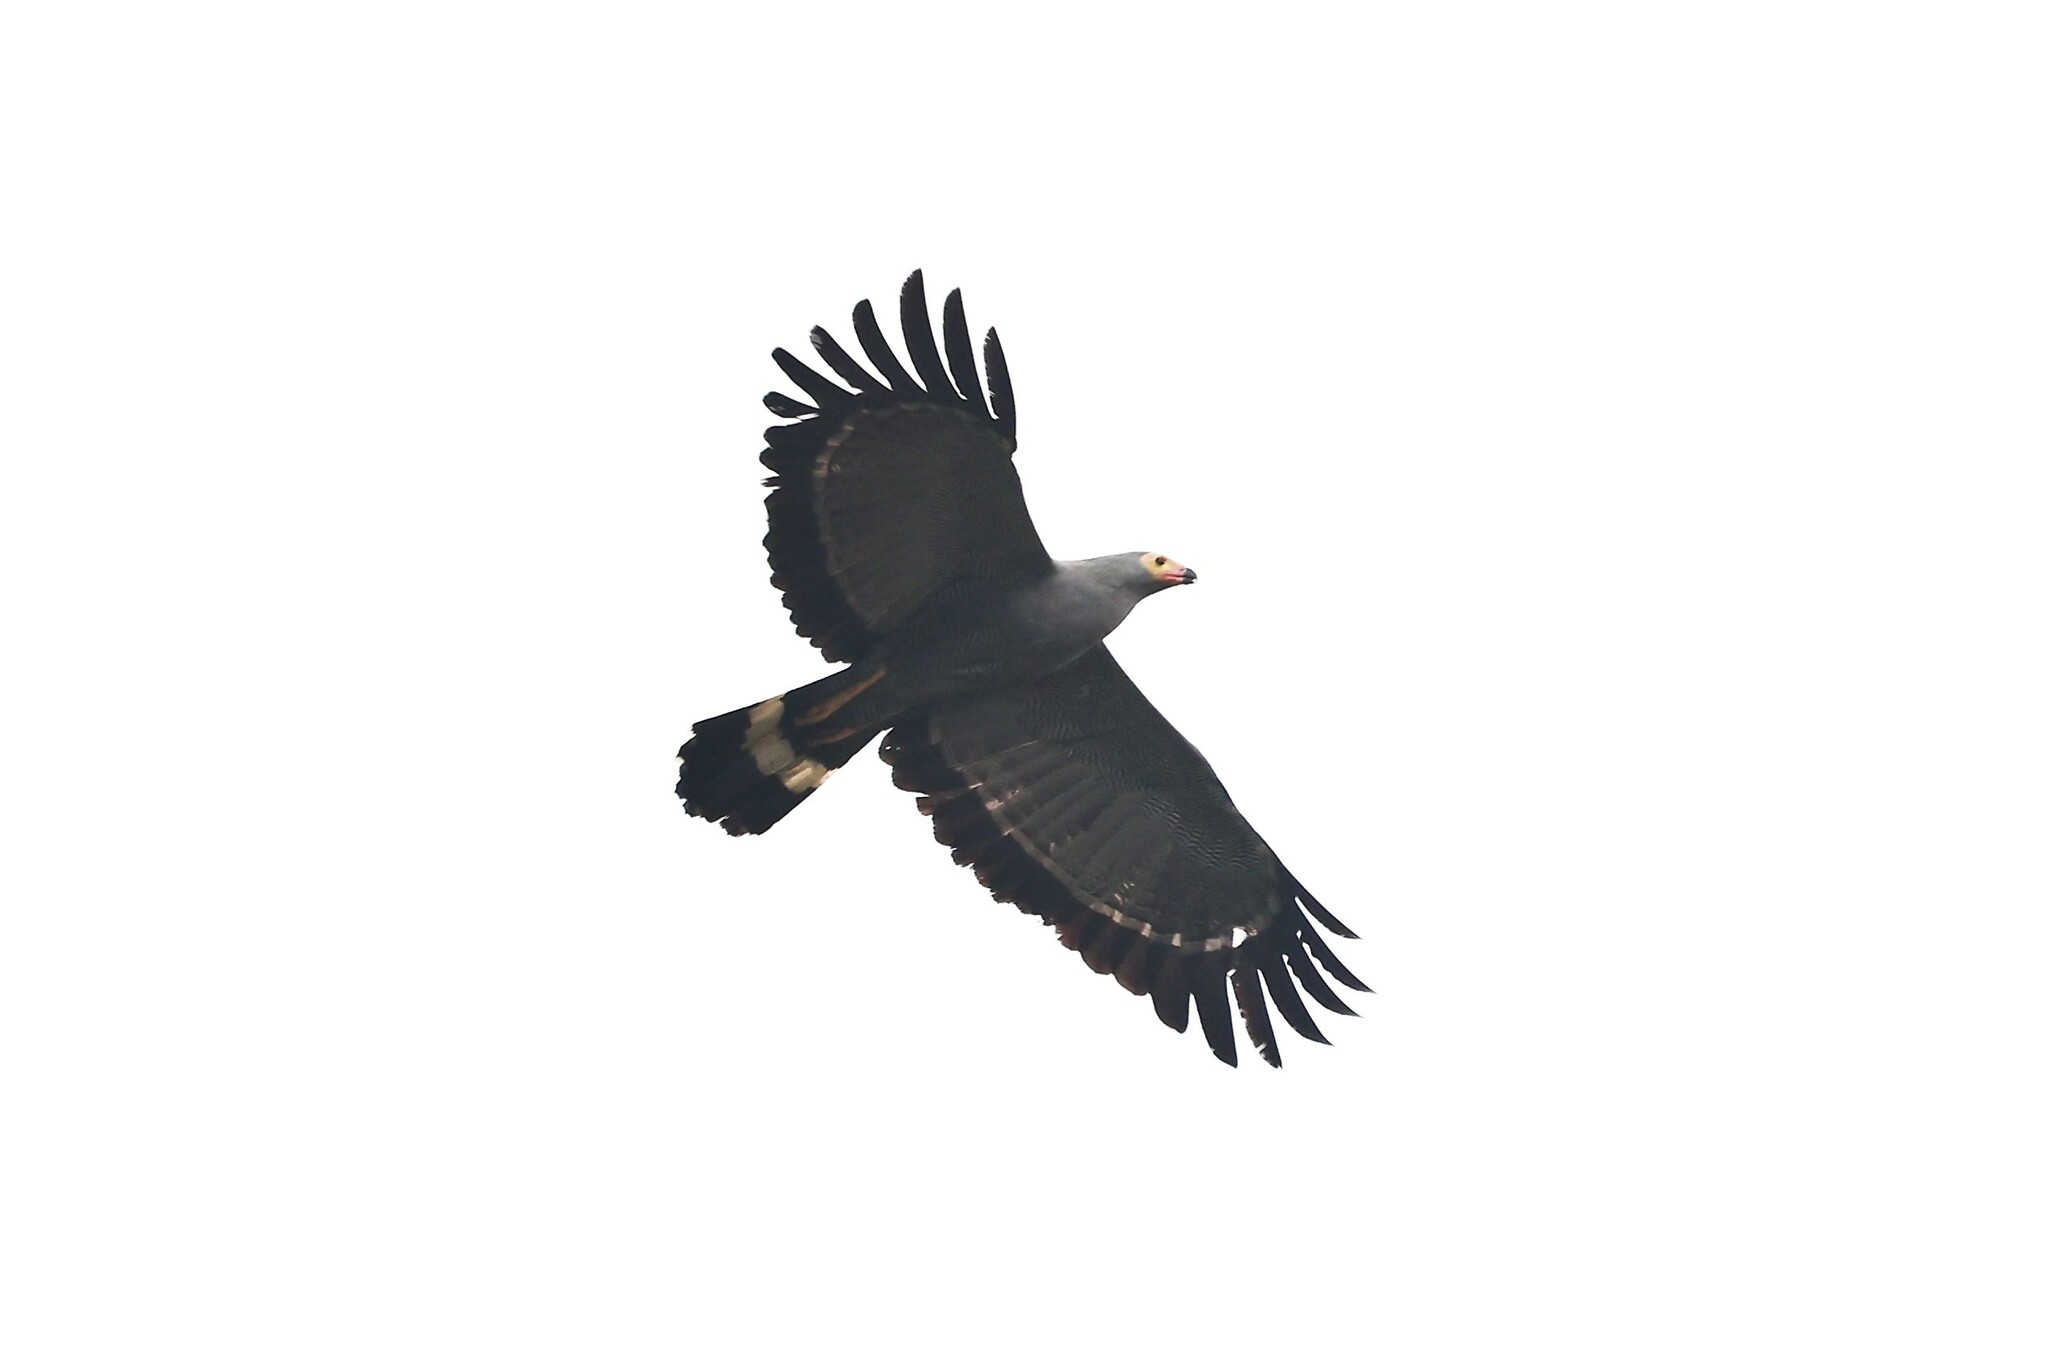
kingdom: Animalia
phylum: Chordata
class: Aves
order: Accipitriformes
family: Accipitridae
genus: Polyboroides
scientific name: Polyboroides typus
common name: African harrier-hawk
